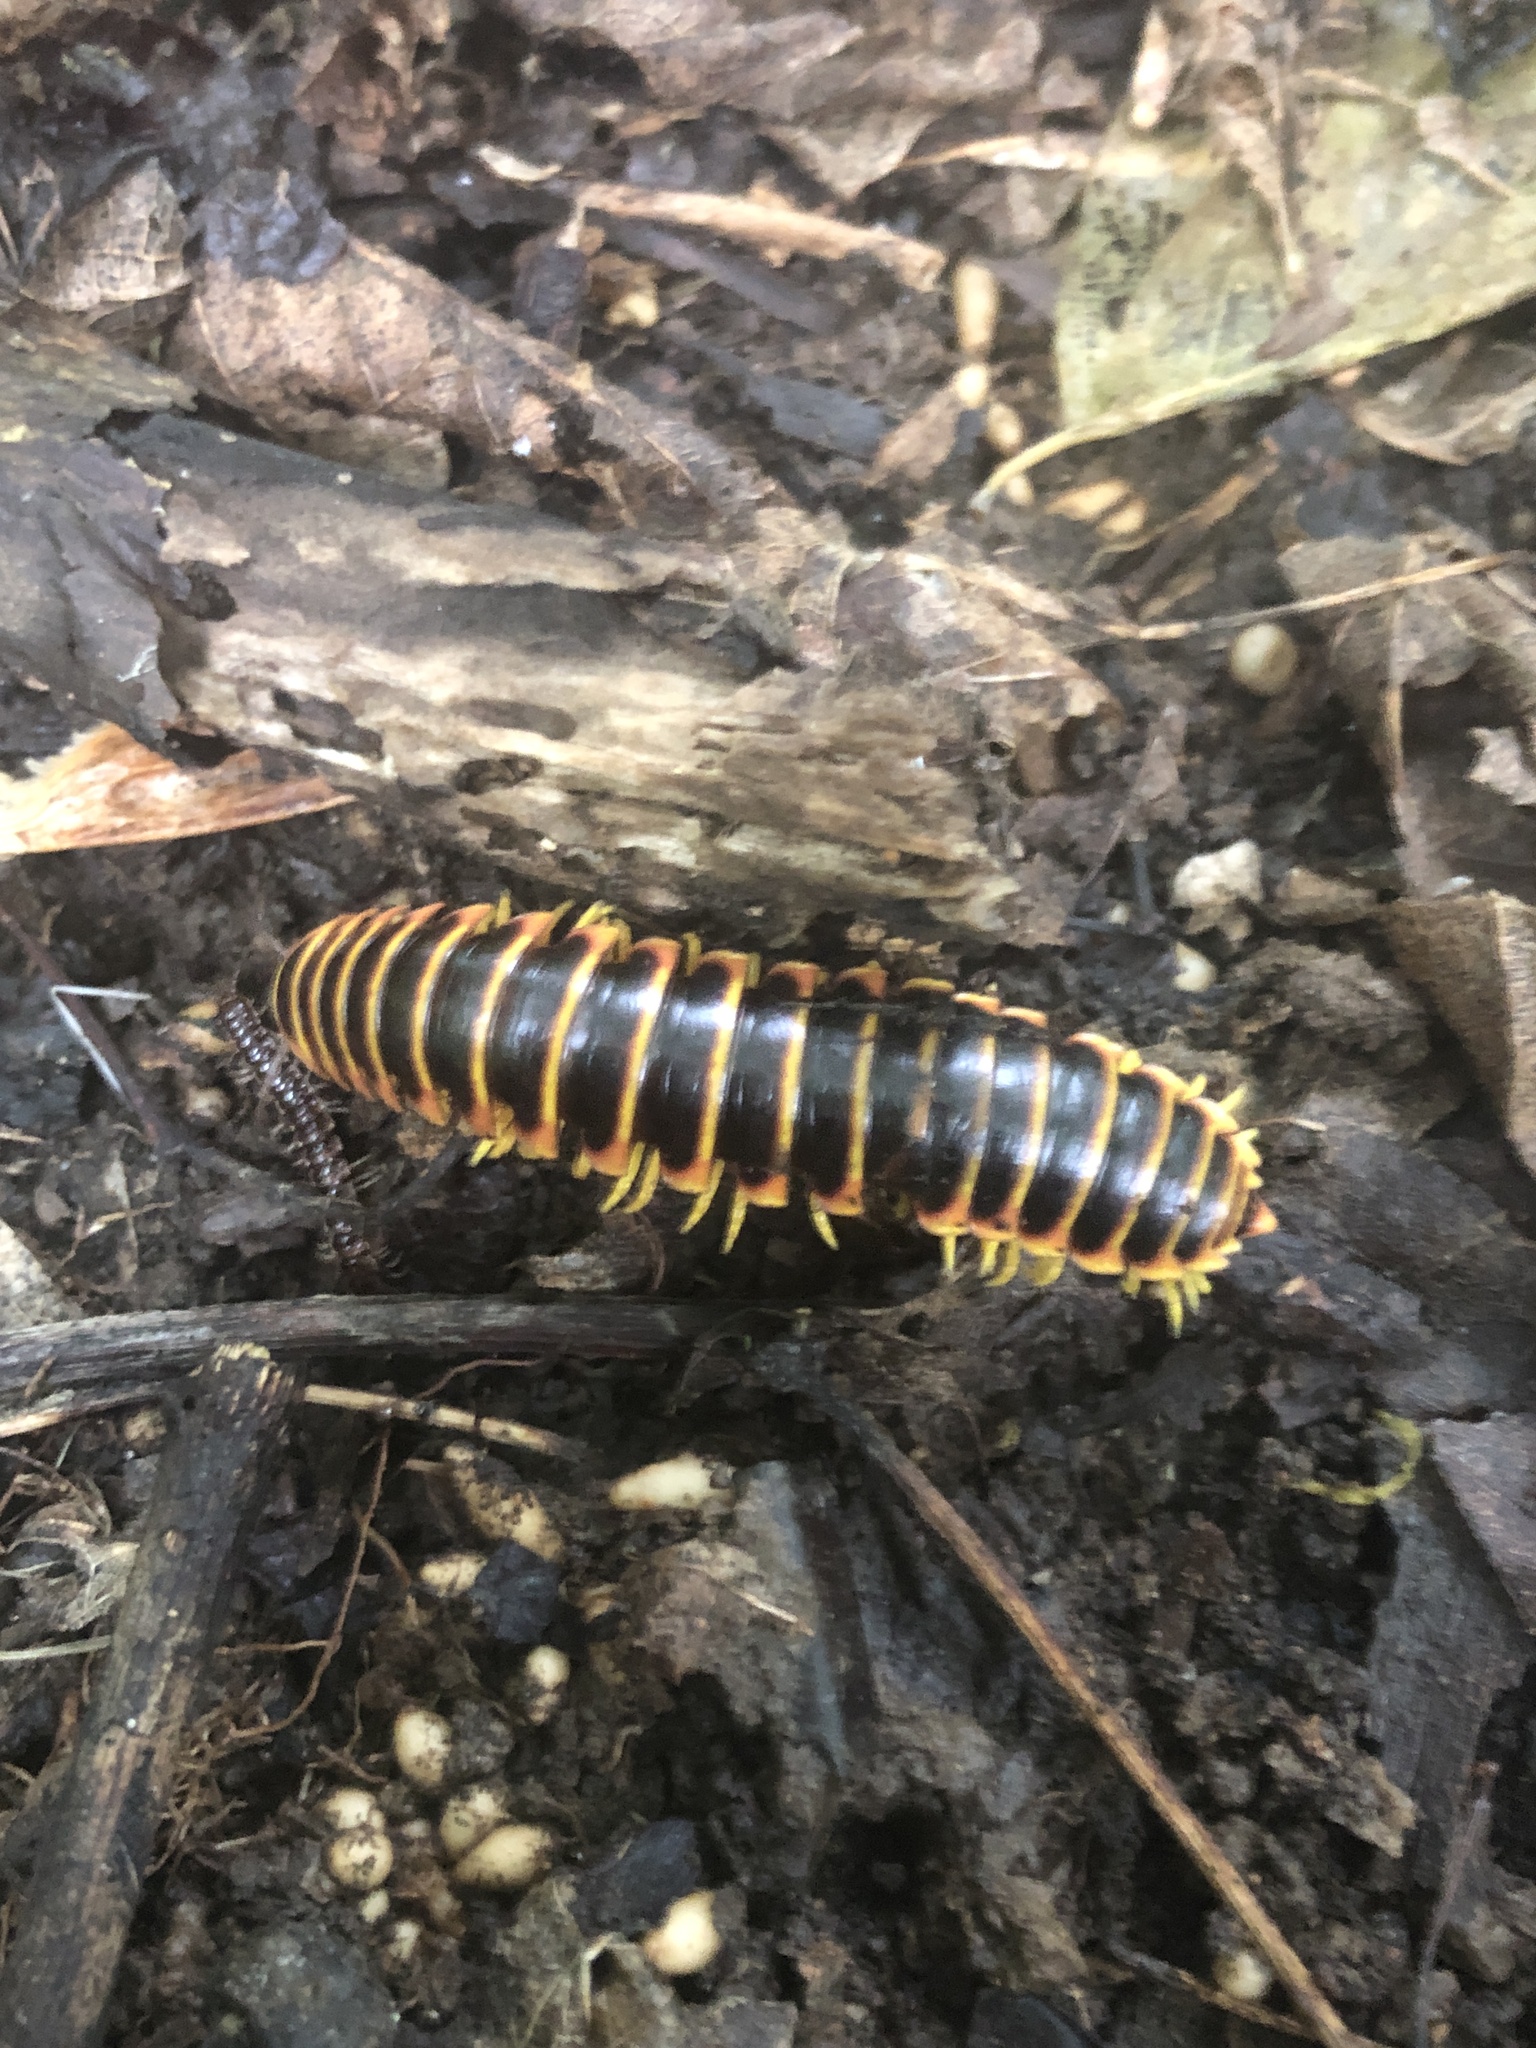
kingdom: Animalia
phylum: Arthropoda
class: Diplopoda
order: Polydesmida
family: Xystodesmidae
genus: Apheloria
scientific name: Apheloria virginiensis
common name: Black-and-gold flat millipede
